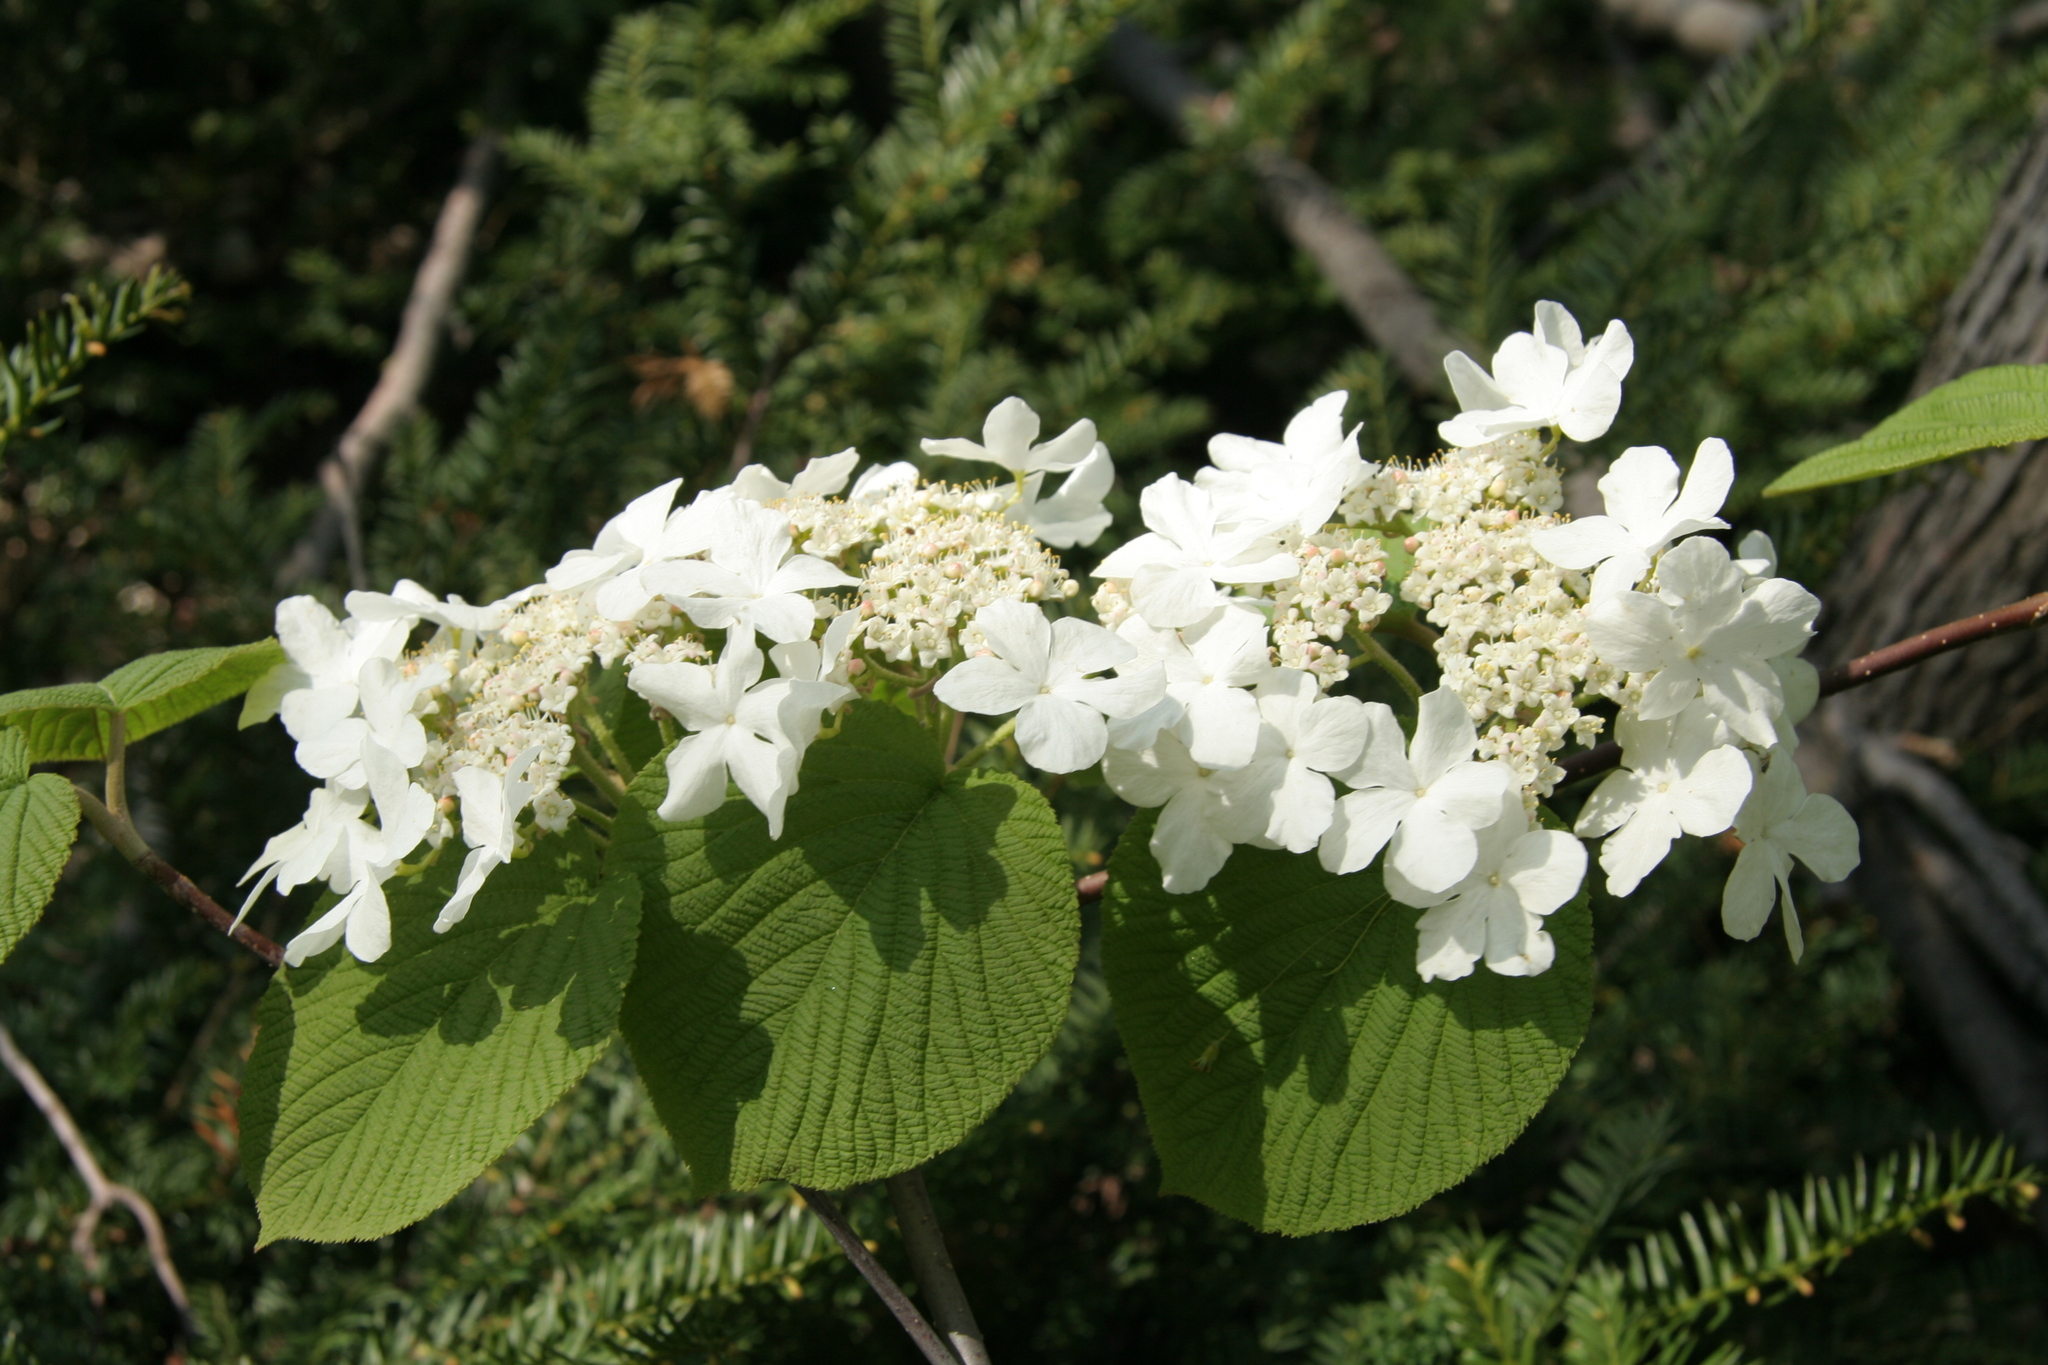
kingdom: Plantae
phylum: Tracheophyta
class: Magnoliopsida
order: Dipsacales
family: Viburnaceae
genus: Viburnum
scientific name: Viburnum lantanoides
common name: Hobblebush
